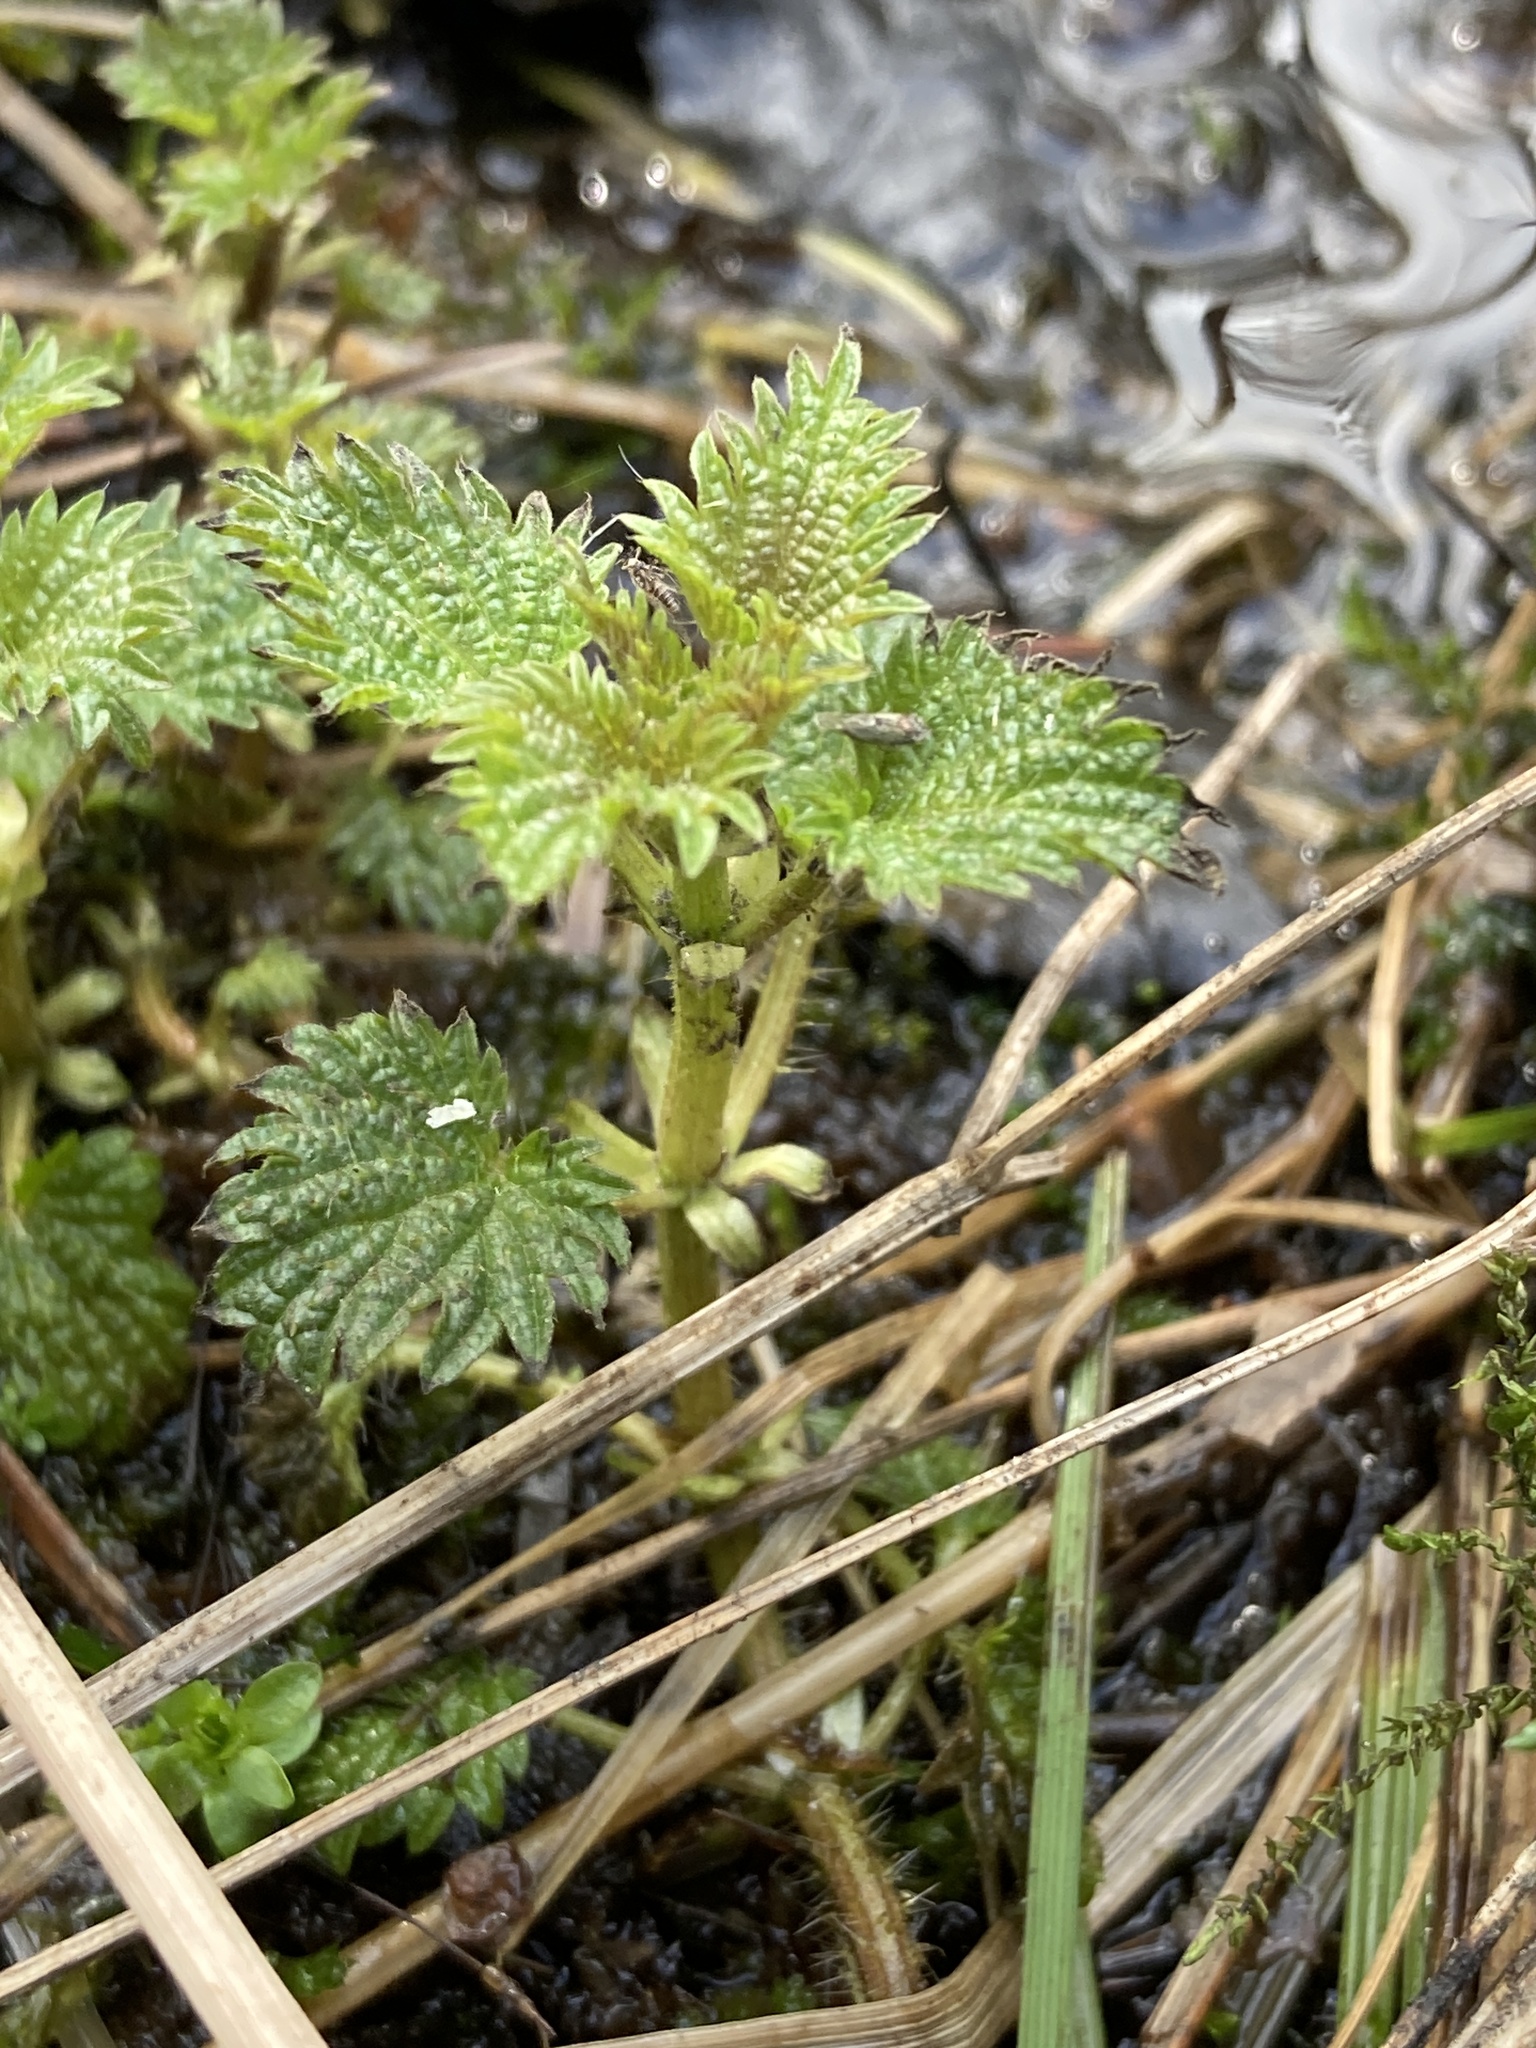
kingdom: Plantae
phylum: Tracheophyta
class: Magnoliopsida
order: Rosales
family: Urticaceae
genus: Urtica
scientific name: Urtica dioica
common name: Common nettle
